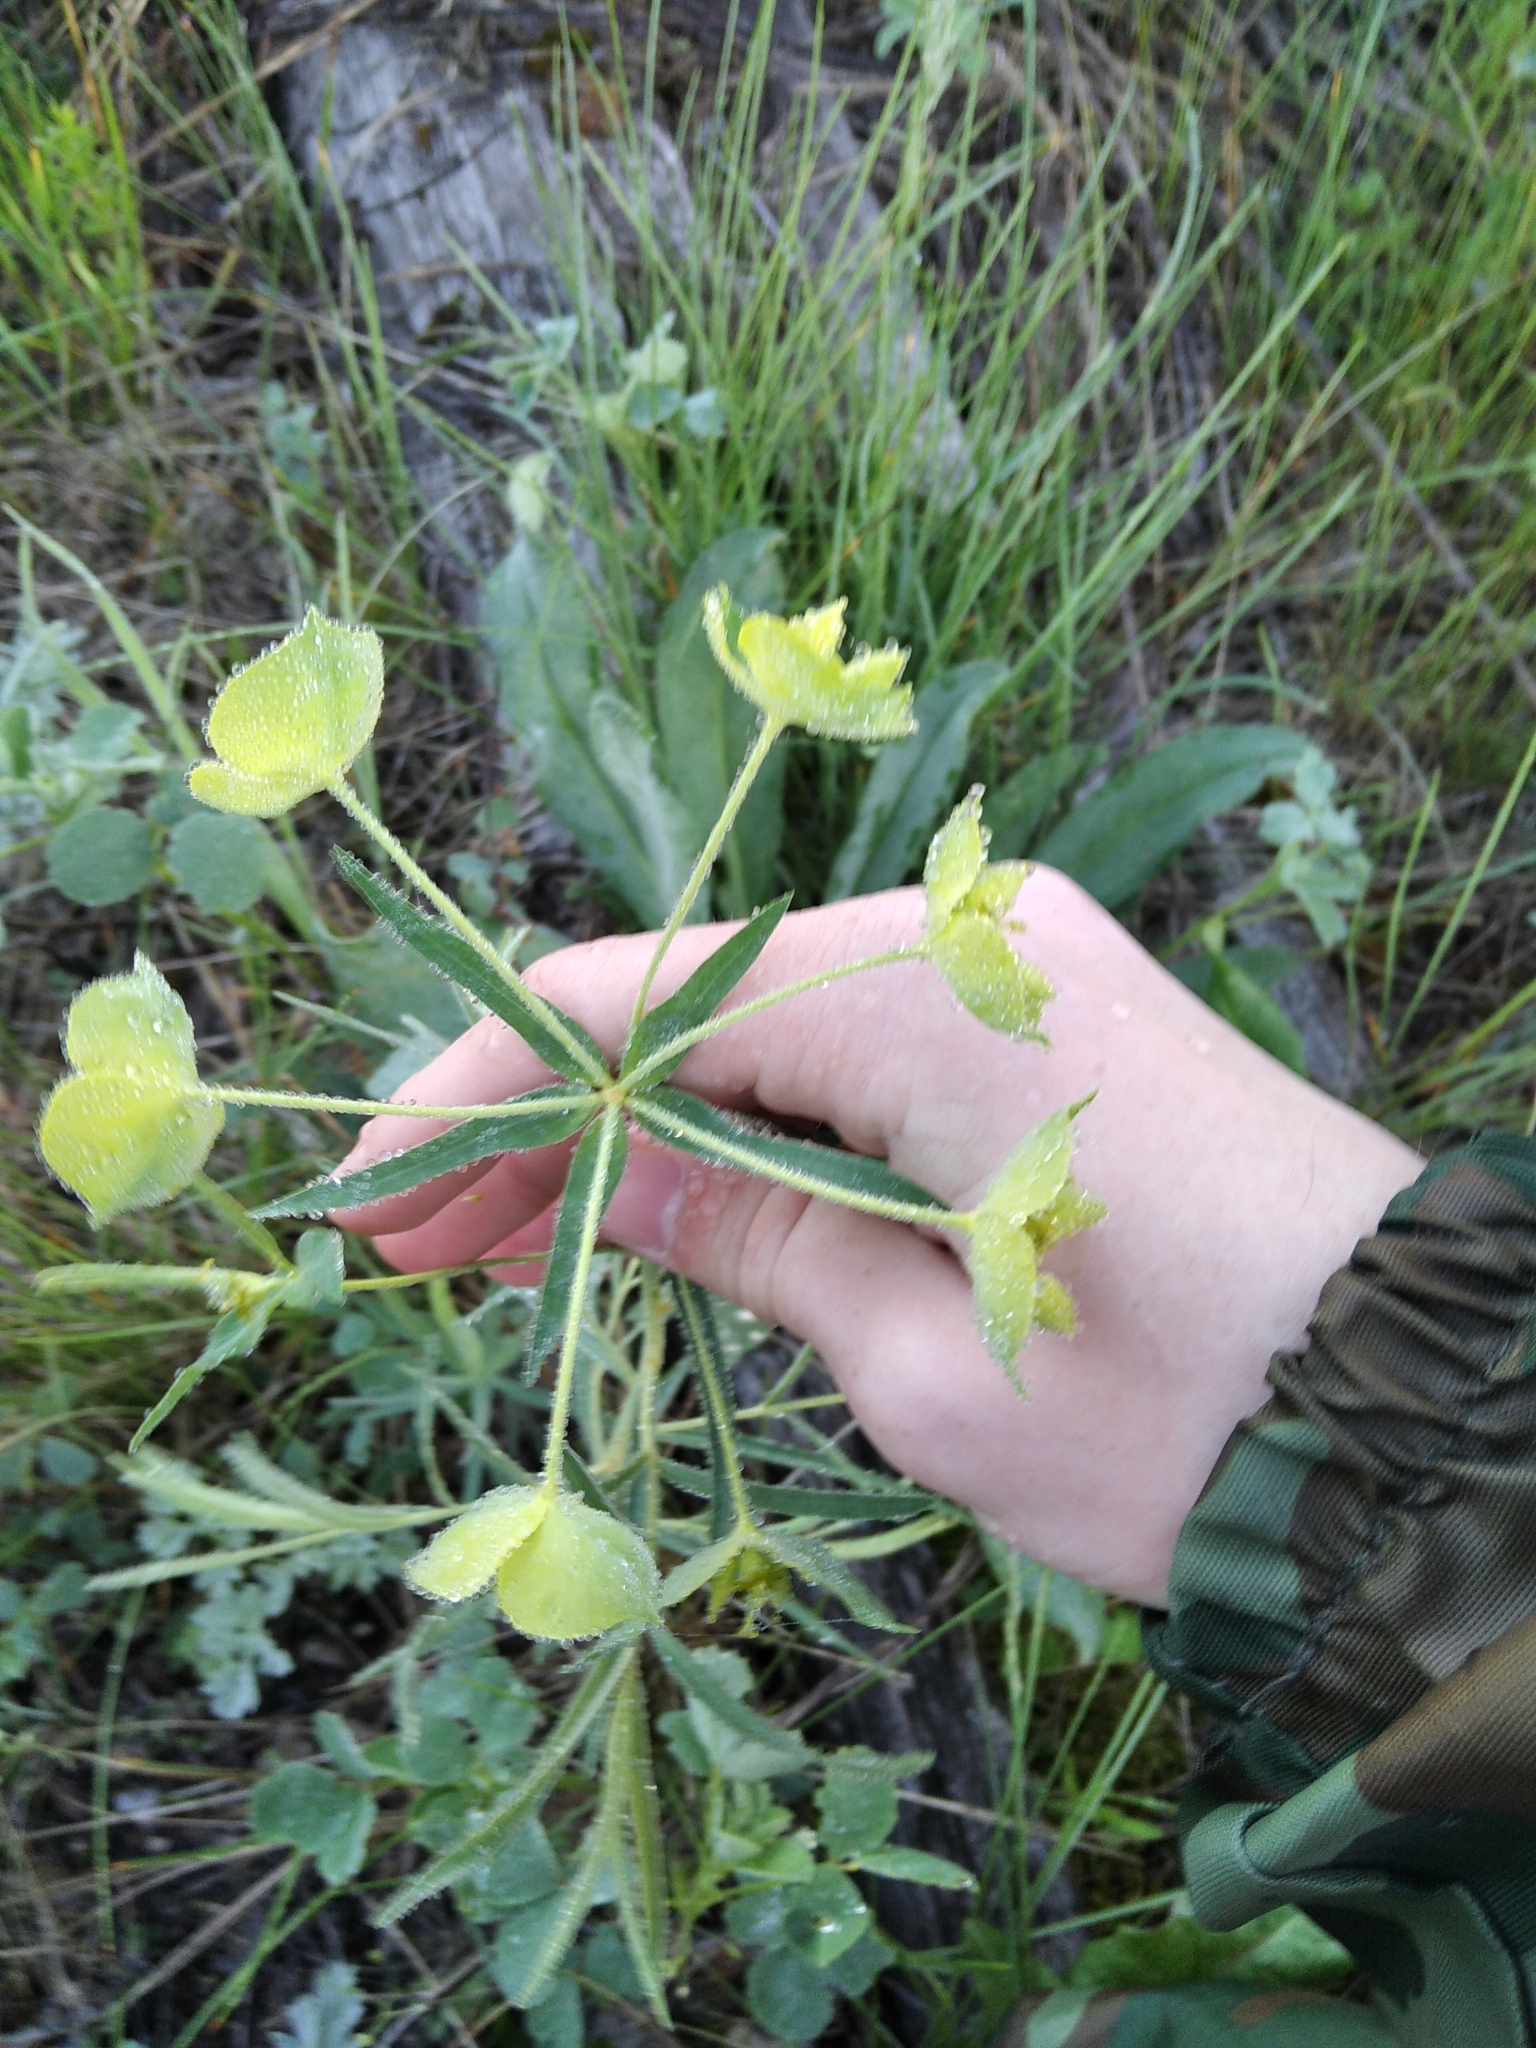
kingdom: Plantae
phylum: Tracheophyta
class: Magnoliopsida
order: Malpighiales
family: Euphorbiaceae
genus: Euphorbia
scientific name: Euphorbia virgata
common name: Leafy spurge
